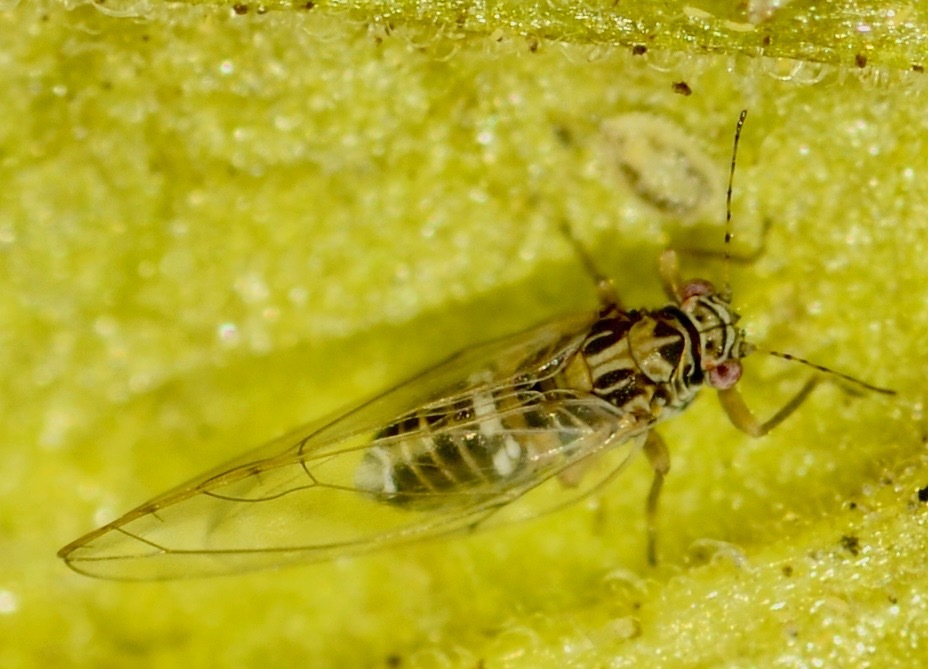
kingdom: Animalia
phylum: Arthropoda
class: Insecta
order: Hemiptera
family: Triozidae
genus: Bactericera
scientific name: Bactericera cockerelli
